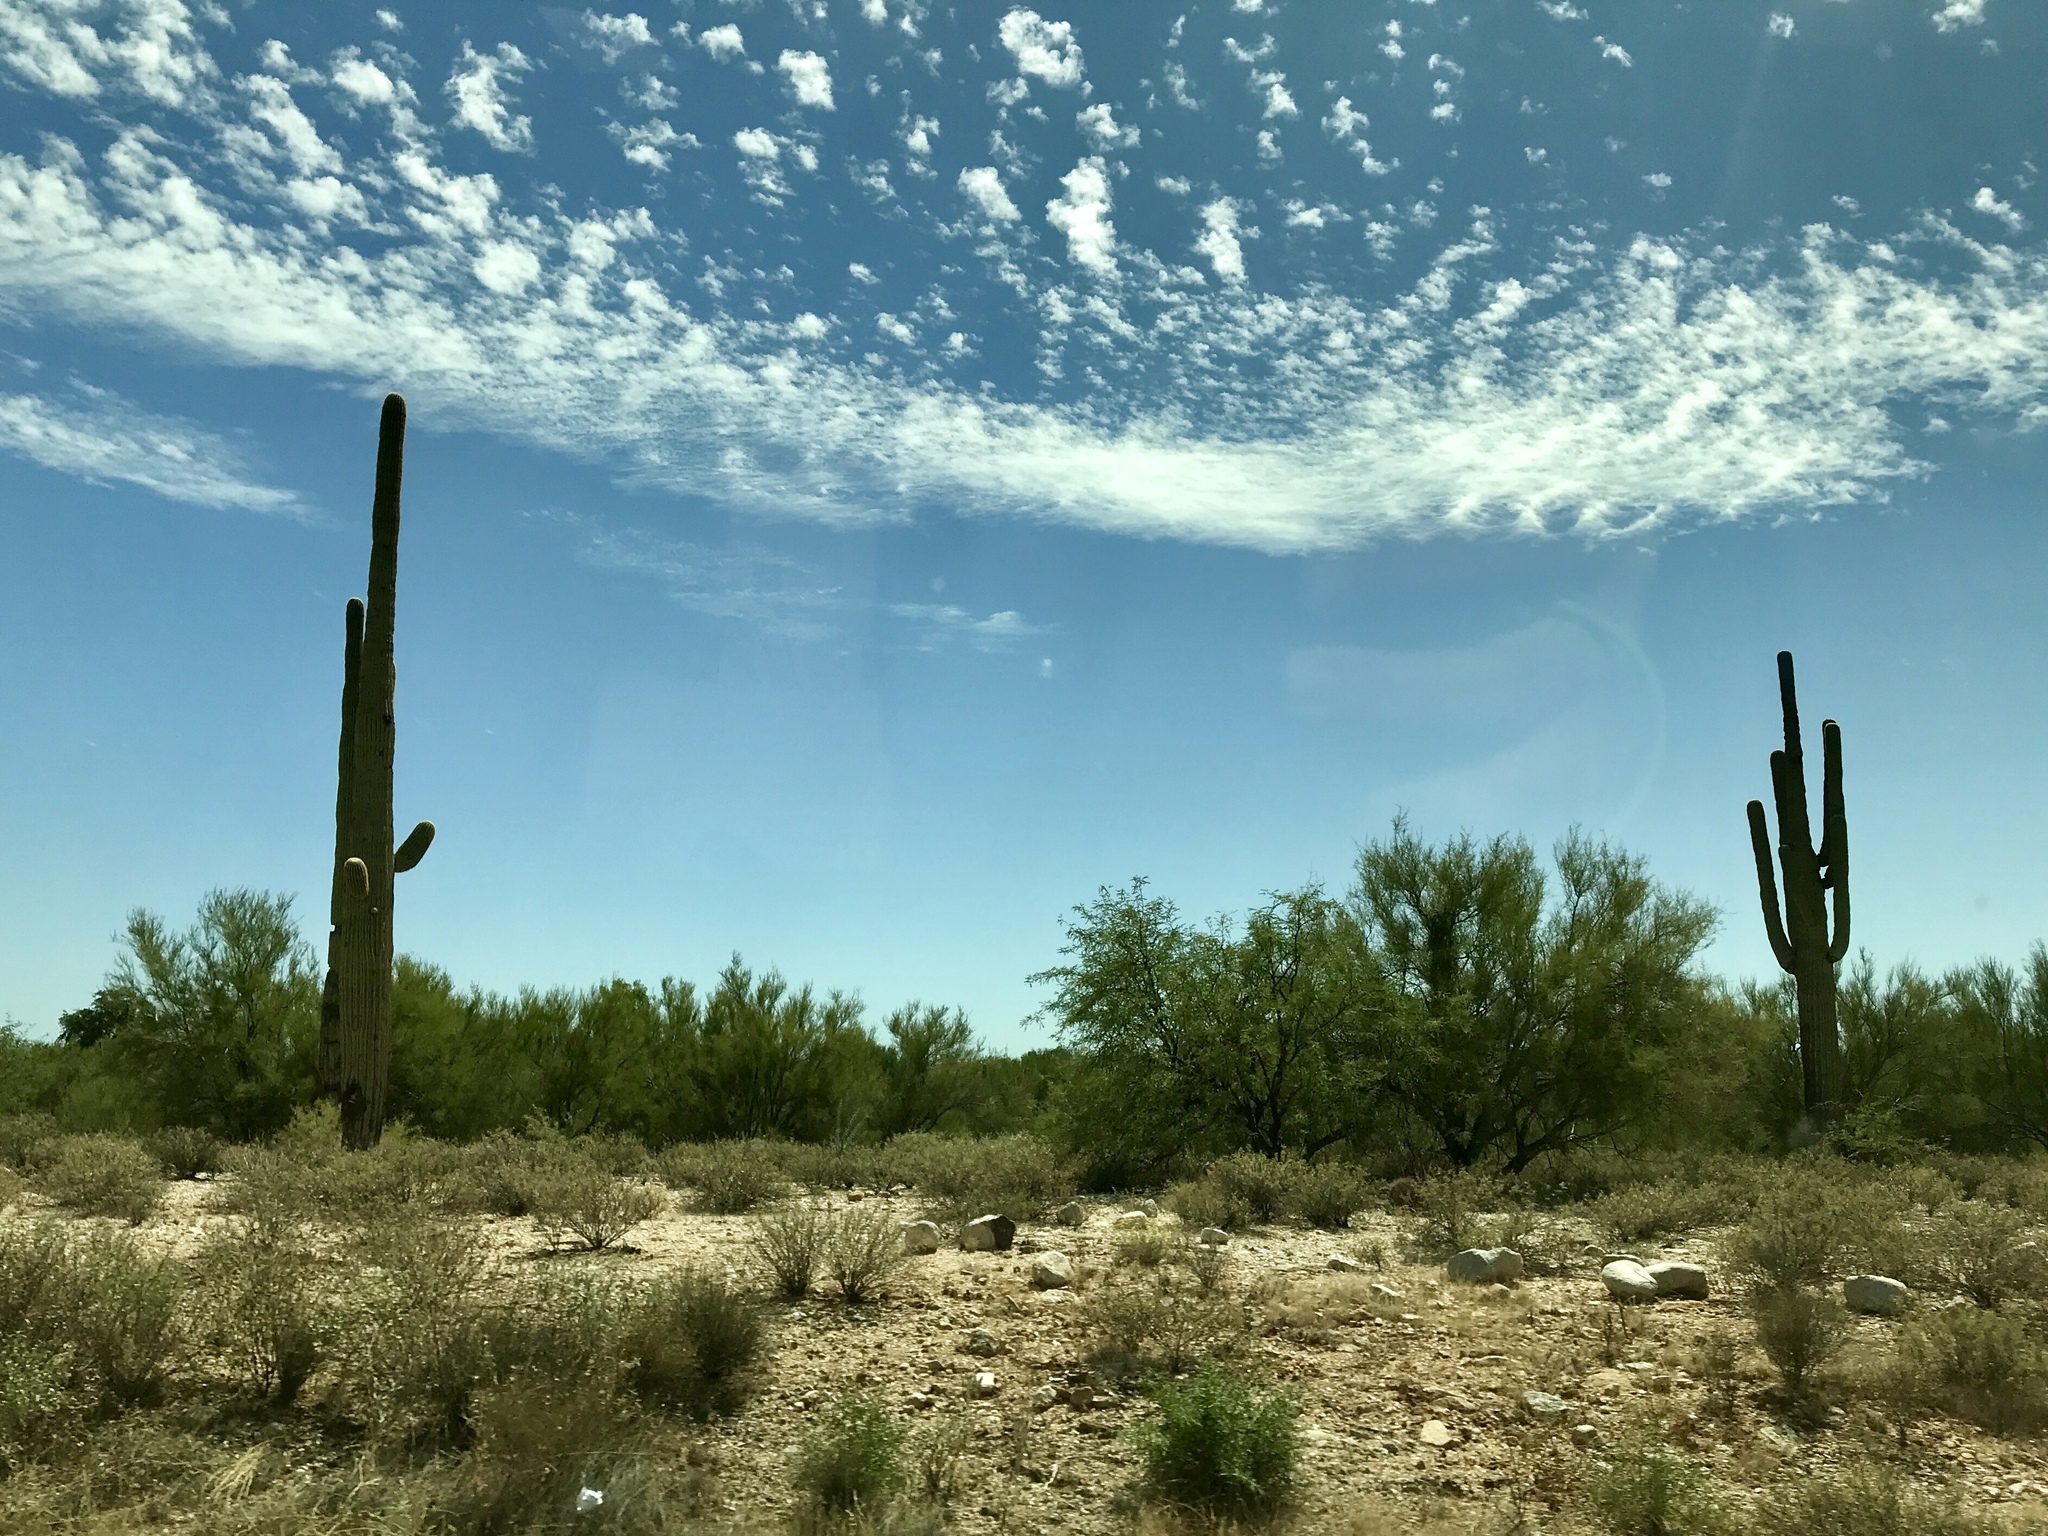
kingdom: Plantae
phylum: Tracheophyta
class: Magnoliopsida
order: Caryophyllales
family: Cactaceae
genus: Carnegiea
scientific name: Carnegiea gigantea
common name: Saguaro
